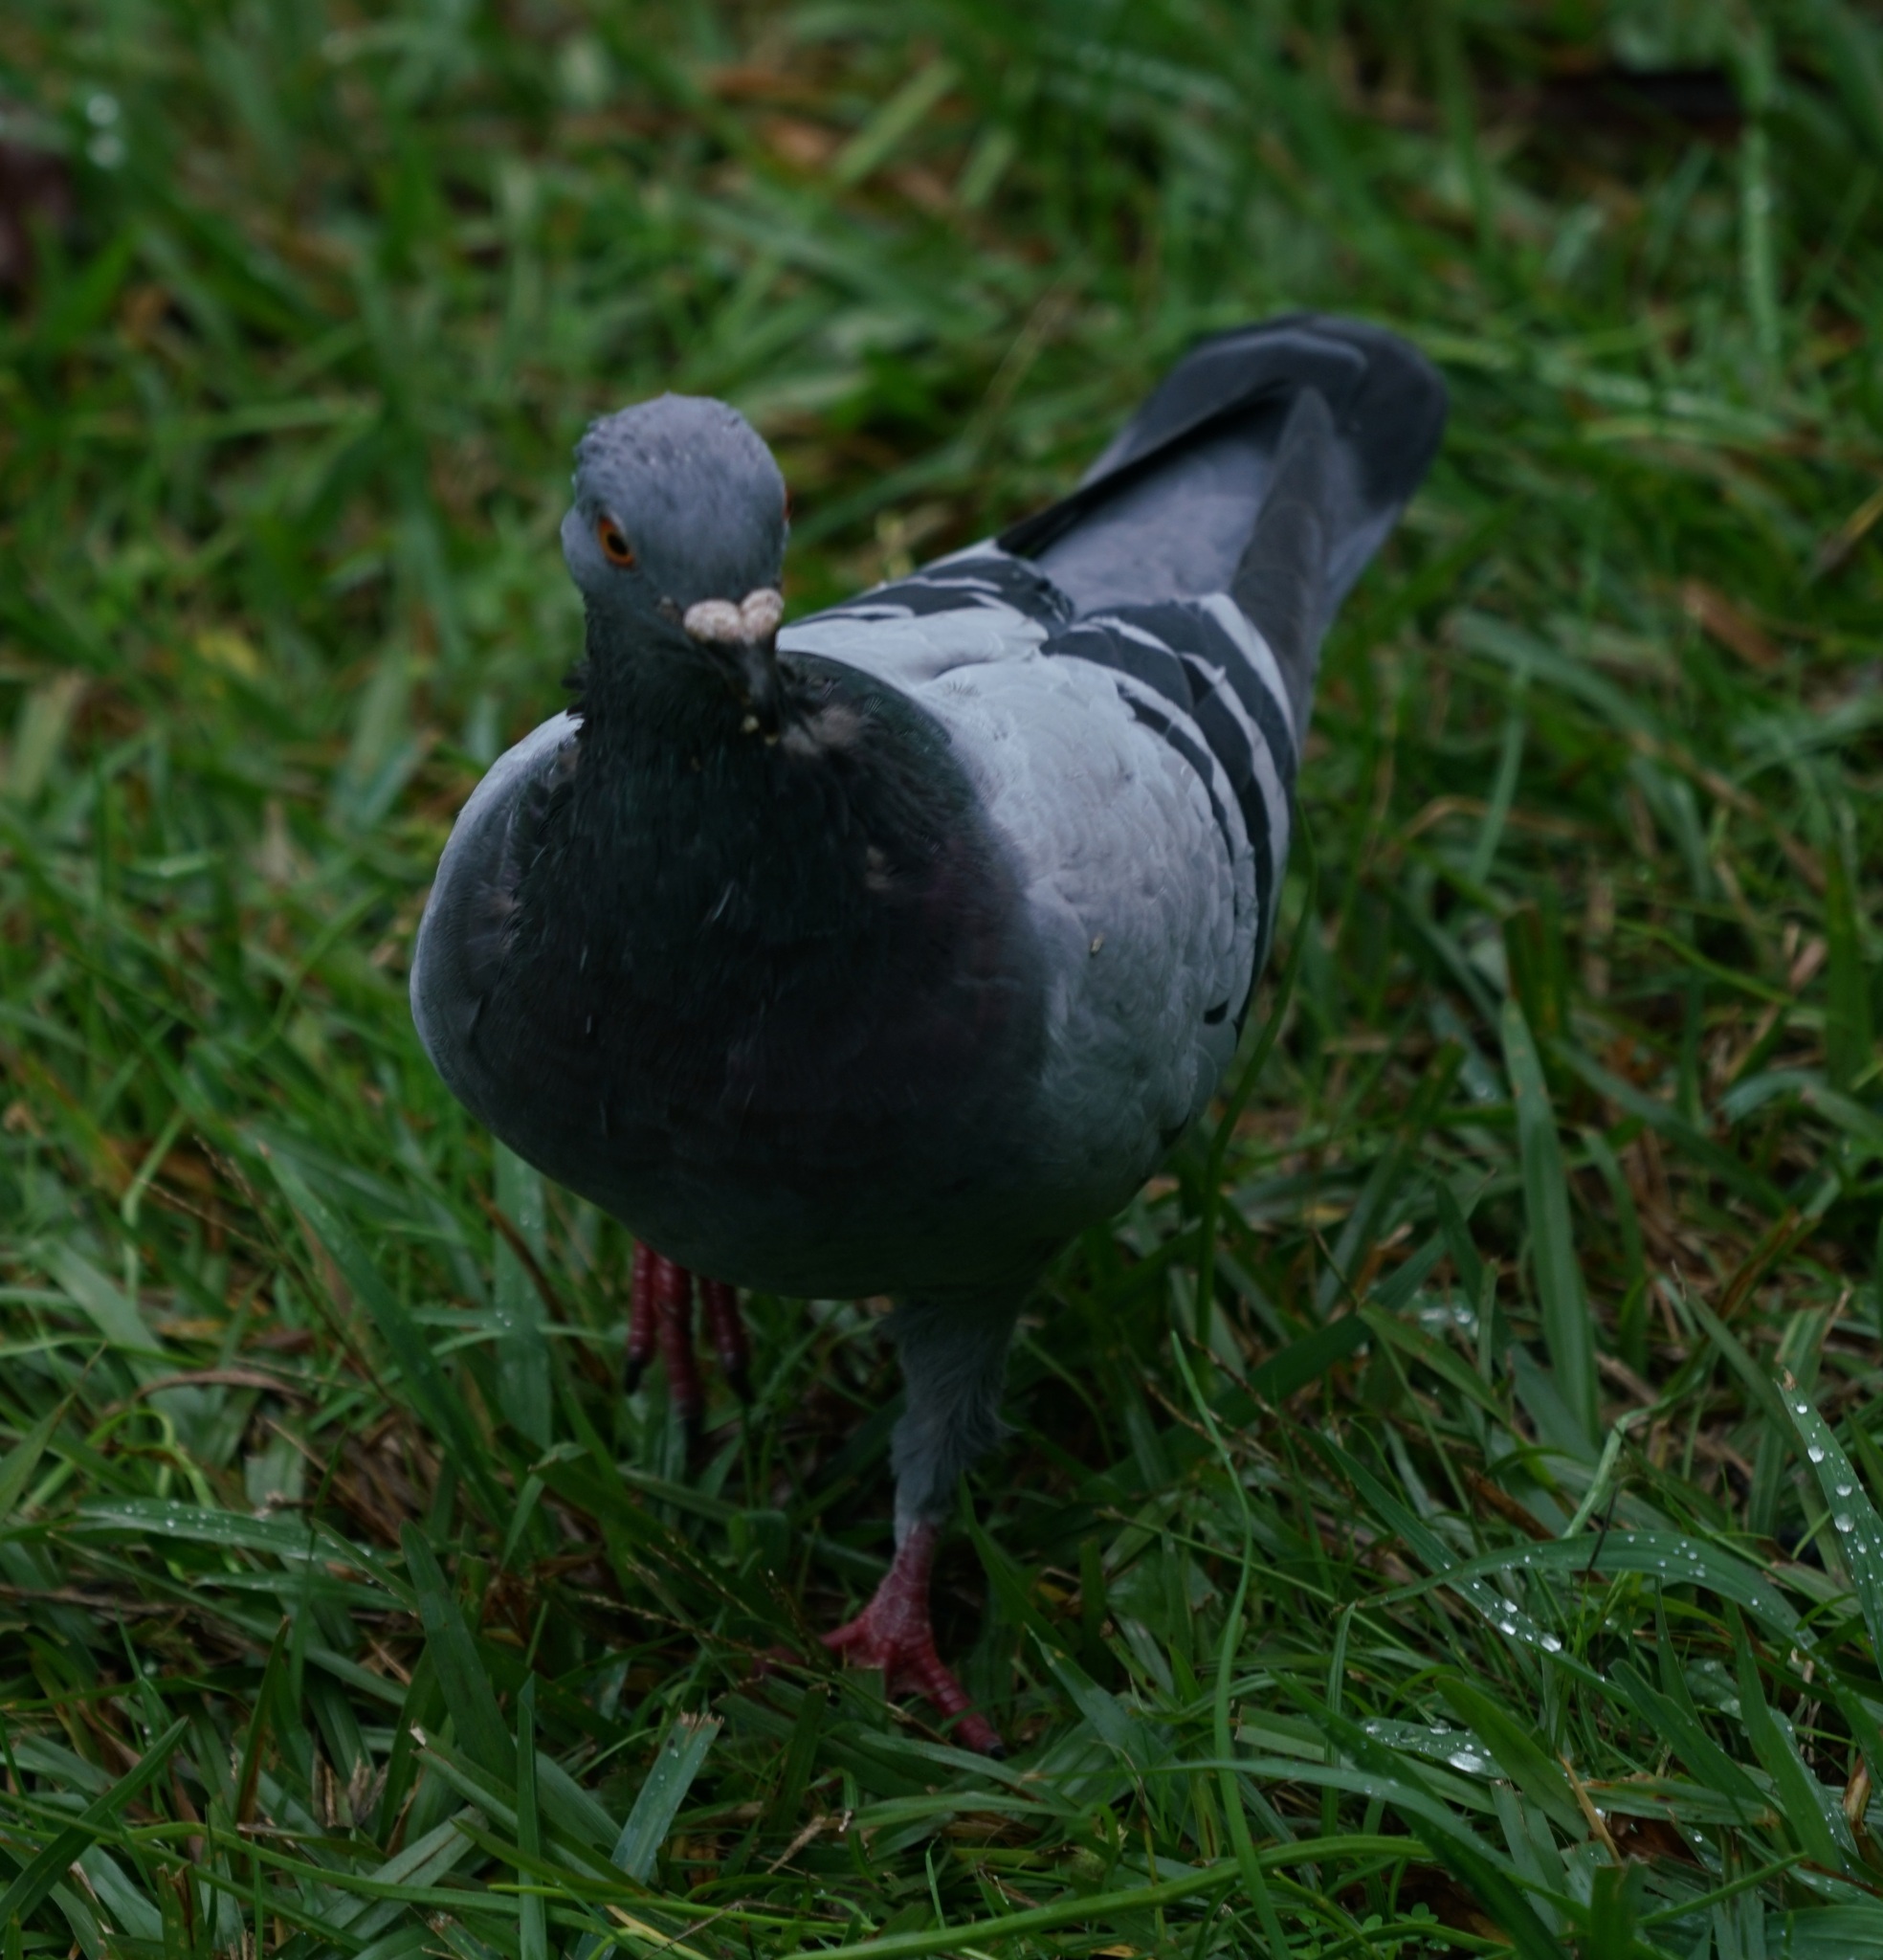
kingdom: Animalia
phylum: Chordata
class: Aves
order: Columbiformes
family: Columbidae
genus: Columba
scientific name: Columba livia
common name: Rock pigeon
